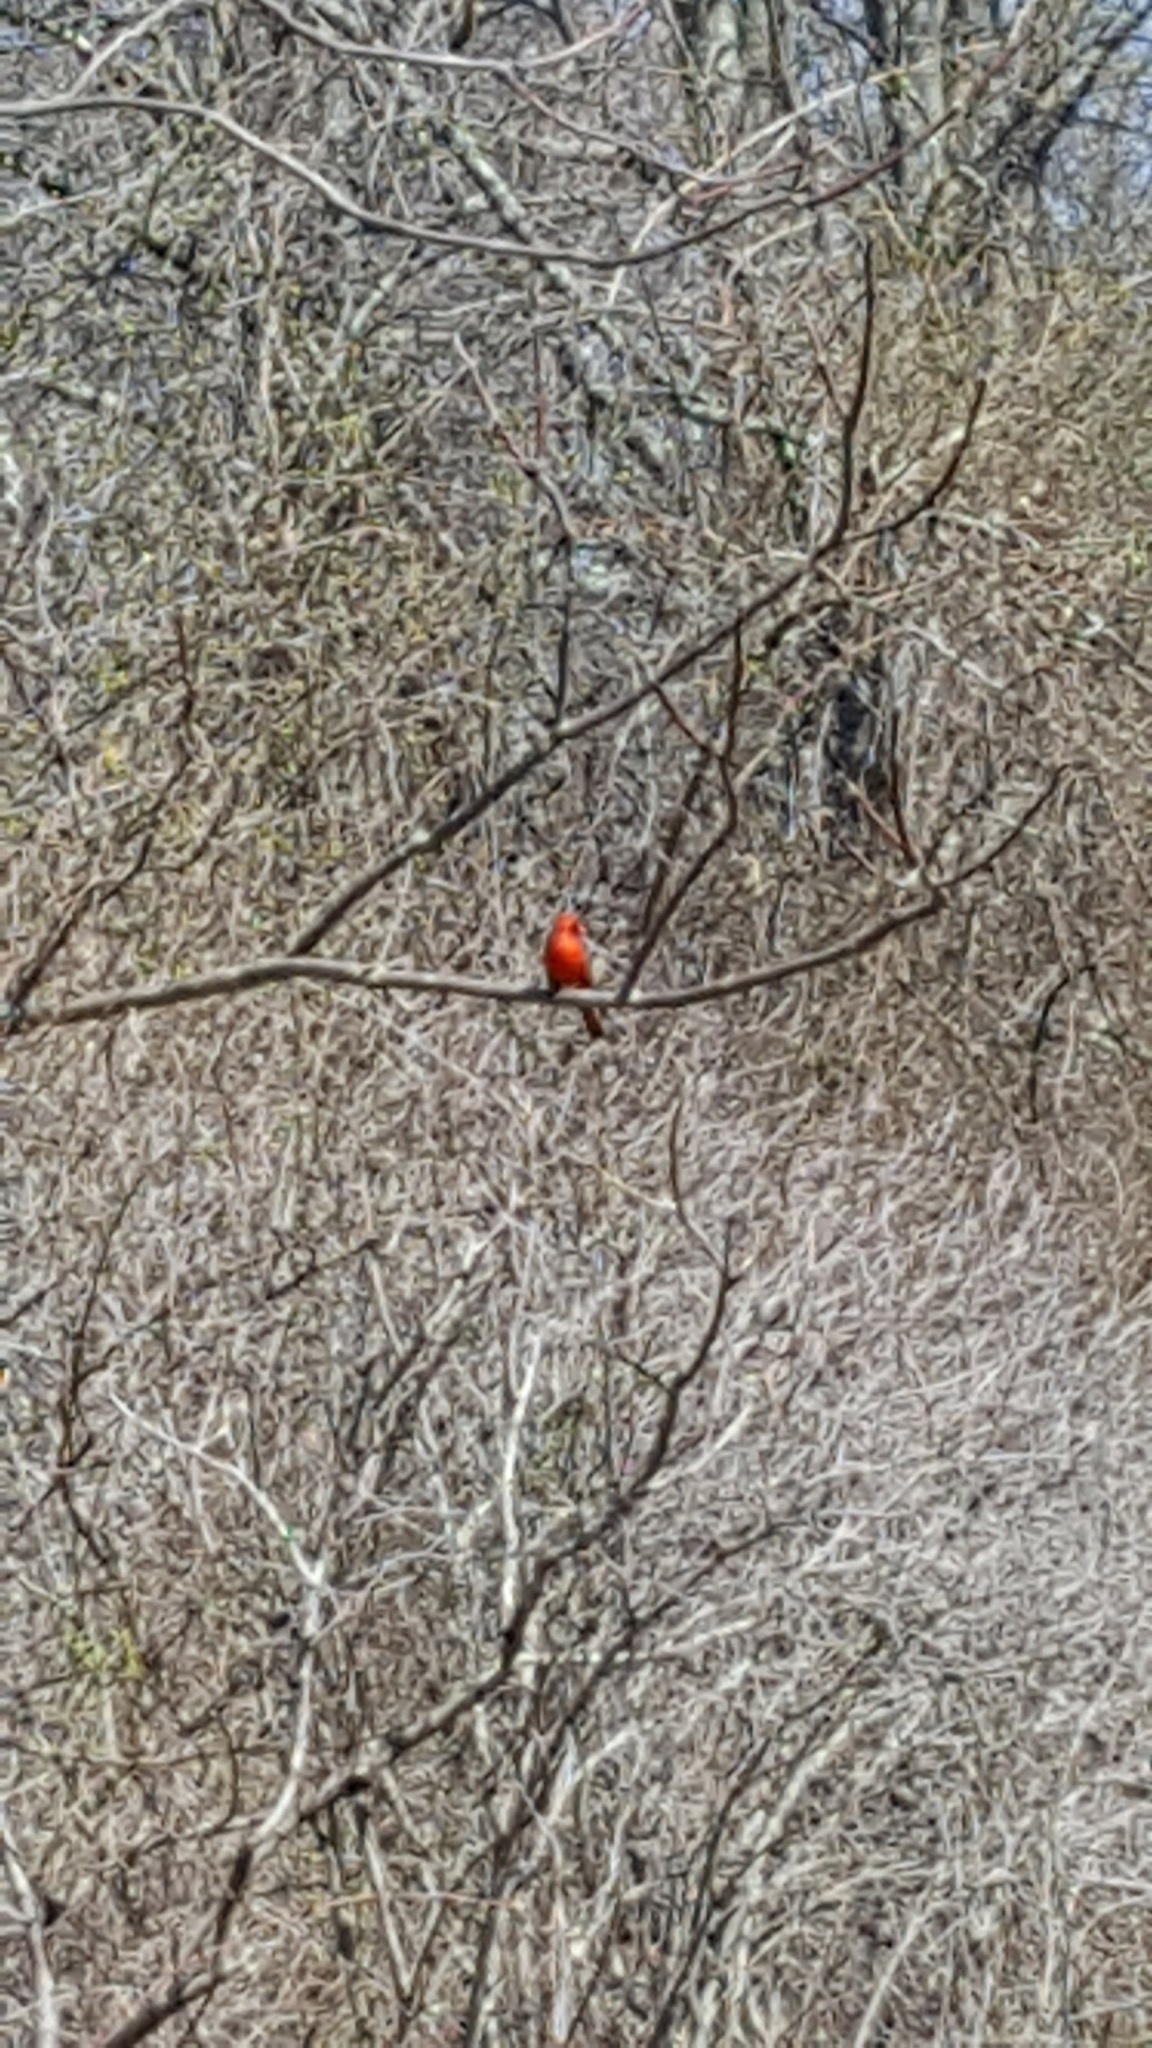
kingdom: Animalia
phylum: Chordata
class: Aves
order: Passeriformes
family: Cardinalidae
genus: Cardinalis
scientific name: Cardinalis cardinalis
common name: Northern cardinal
